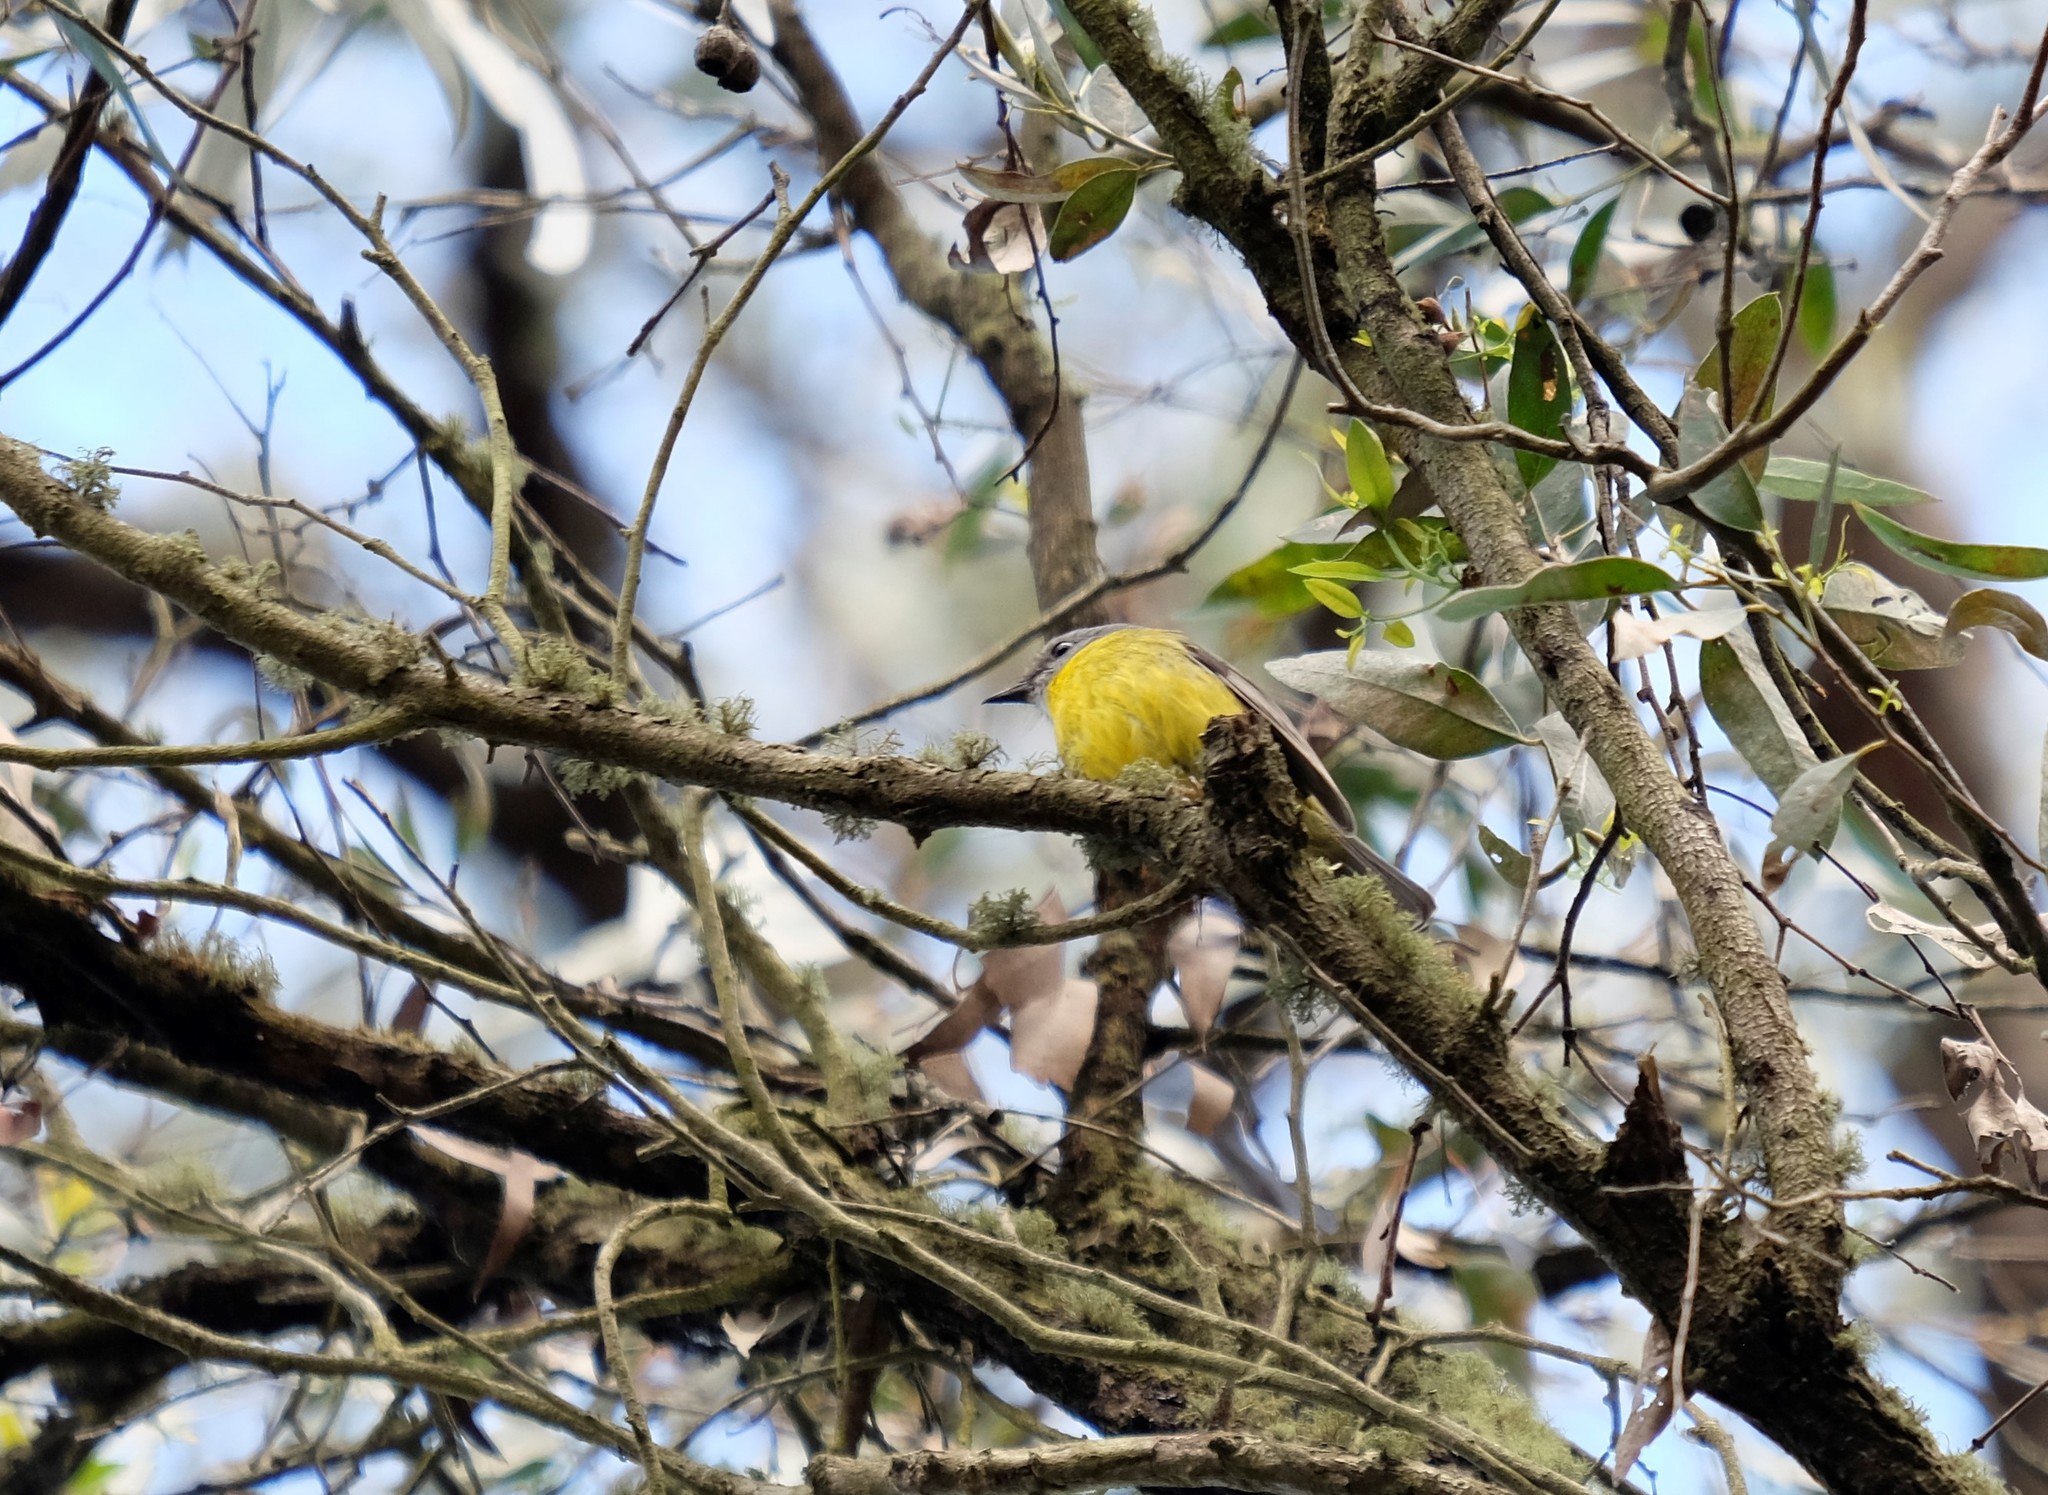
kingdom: Animalia
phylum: Chordata
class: Aves
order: Passeriformes
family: Petroicidae
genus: Eopsaltria
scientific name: Eopsaltria australis
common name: Eastern yellow robin
